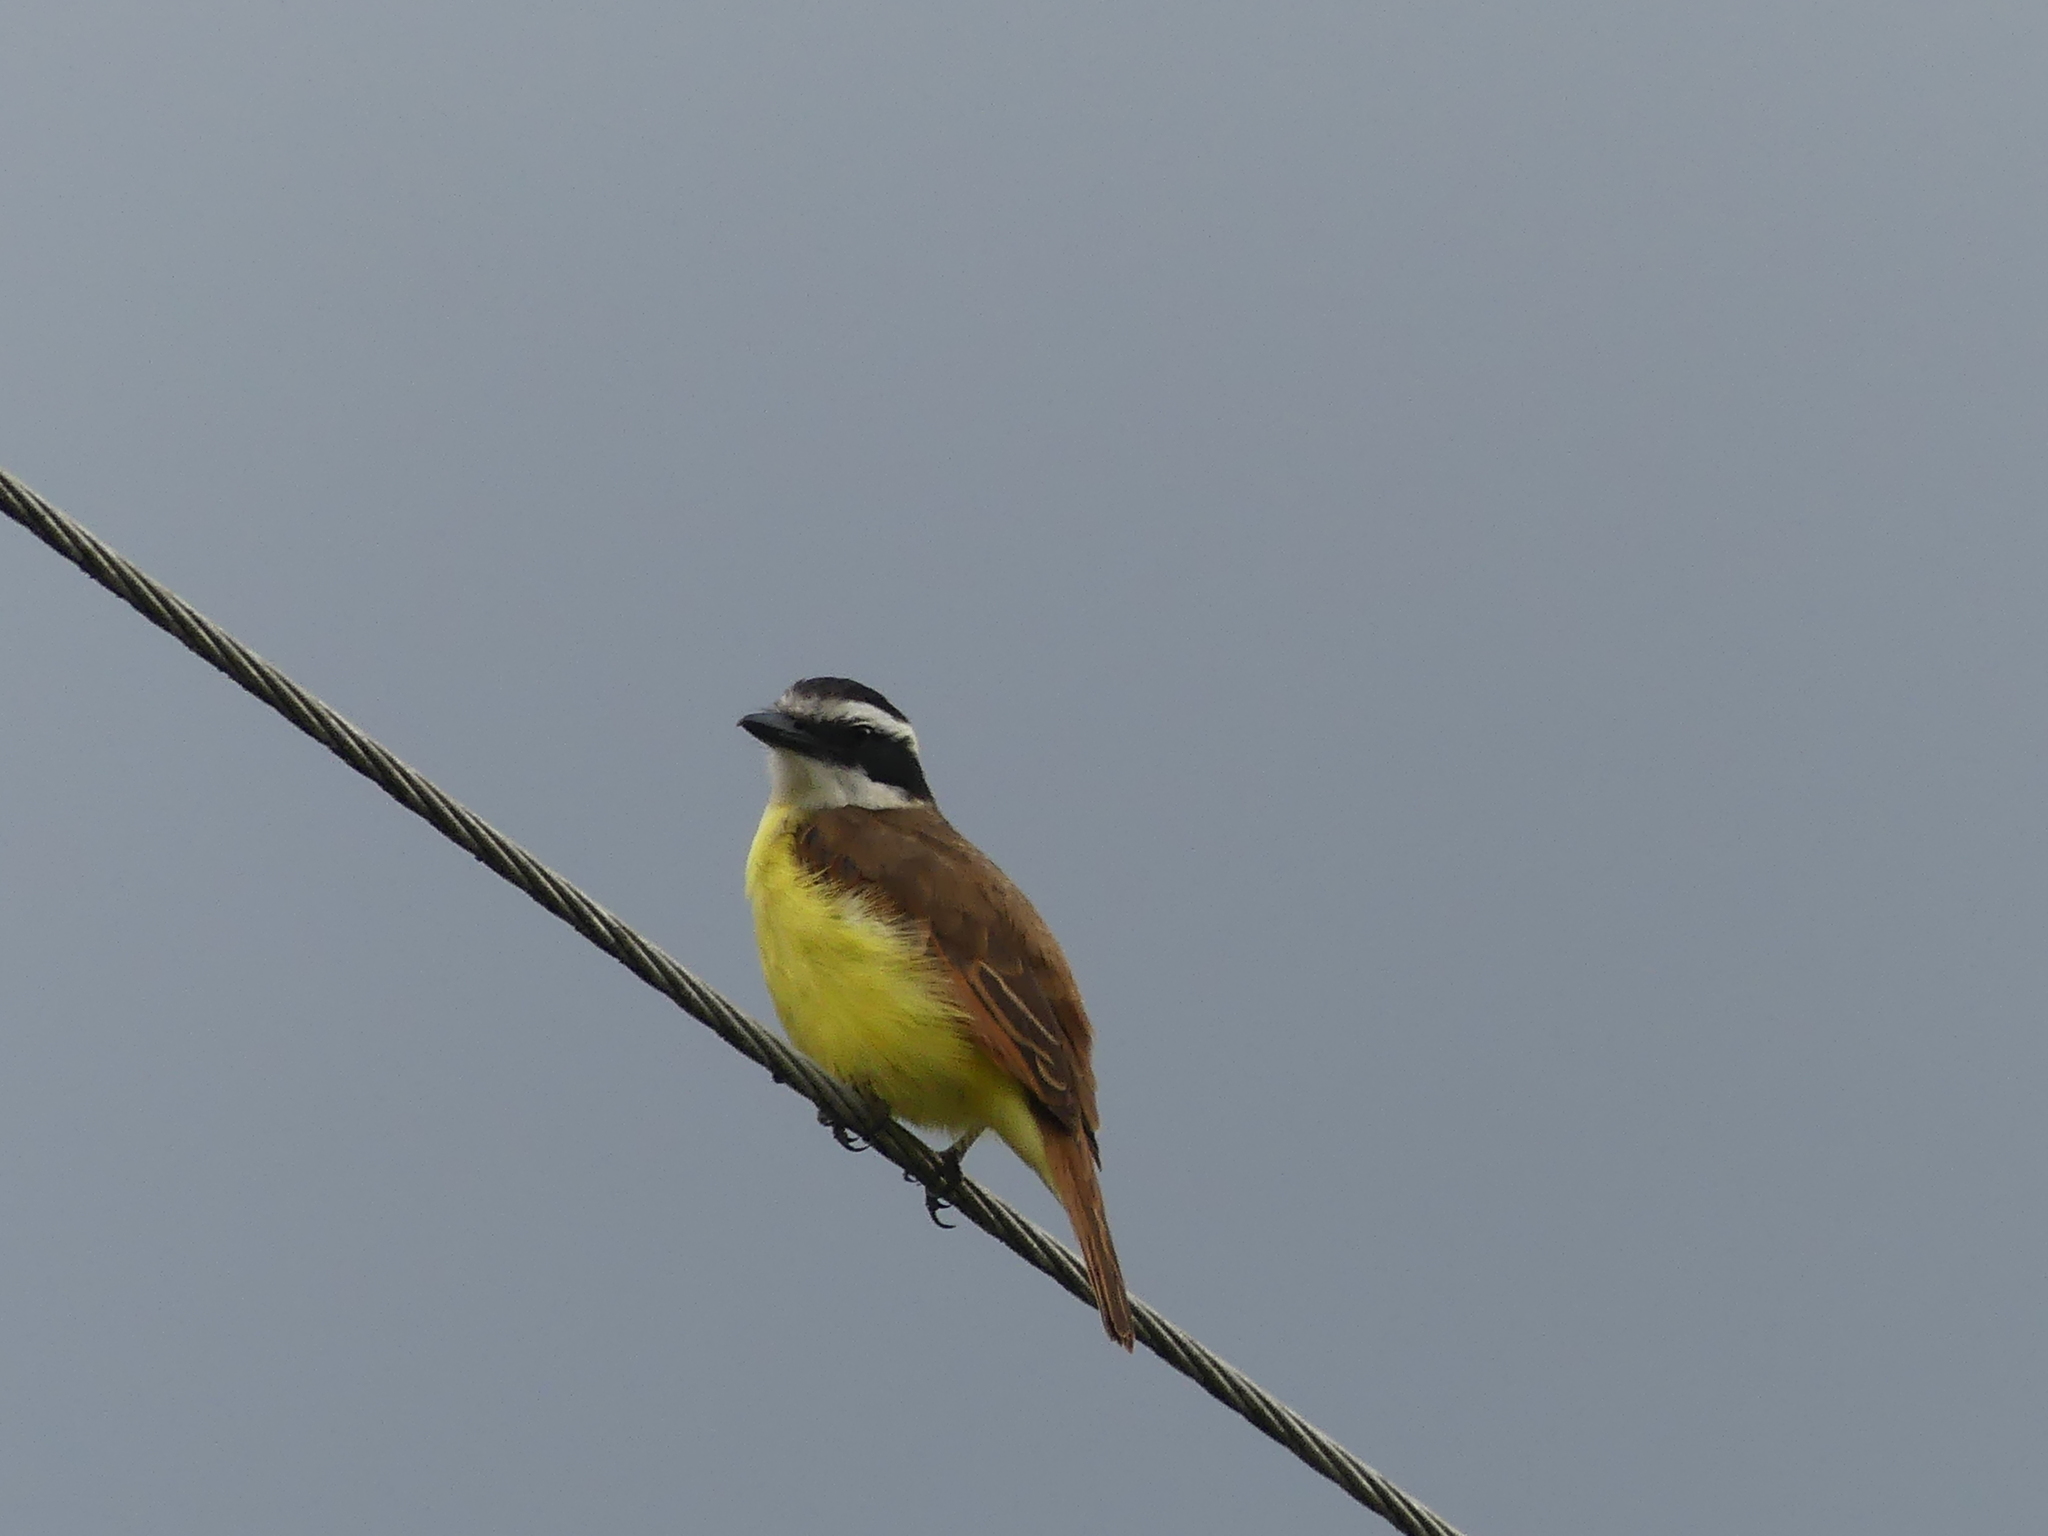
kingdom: Animalia
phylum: Chordata
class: Aves
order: Passeriformes
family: Tyrannidae
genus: Pitangus
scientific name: Pitangus sulphuratus
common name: Great kiskadee
